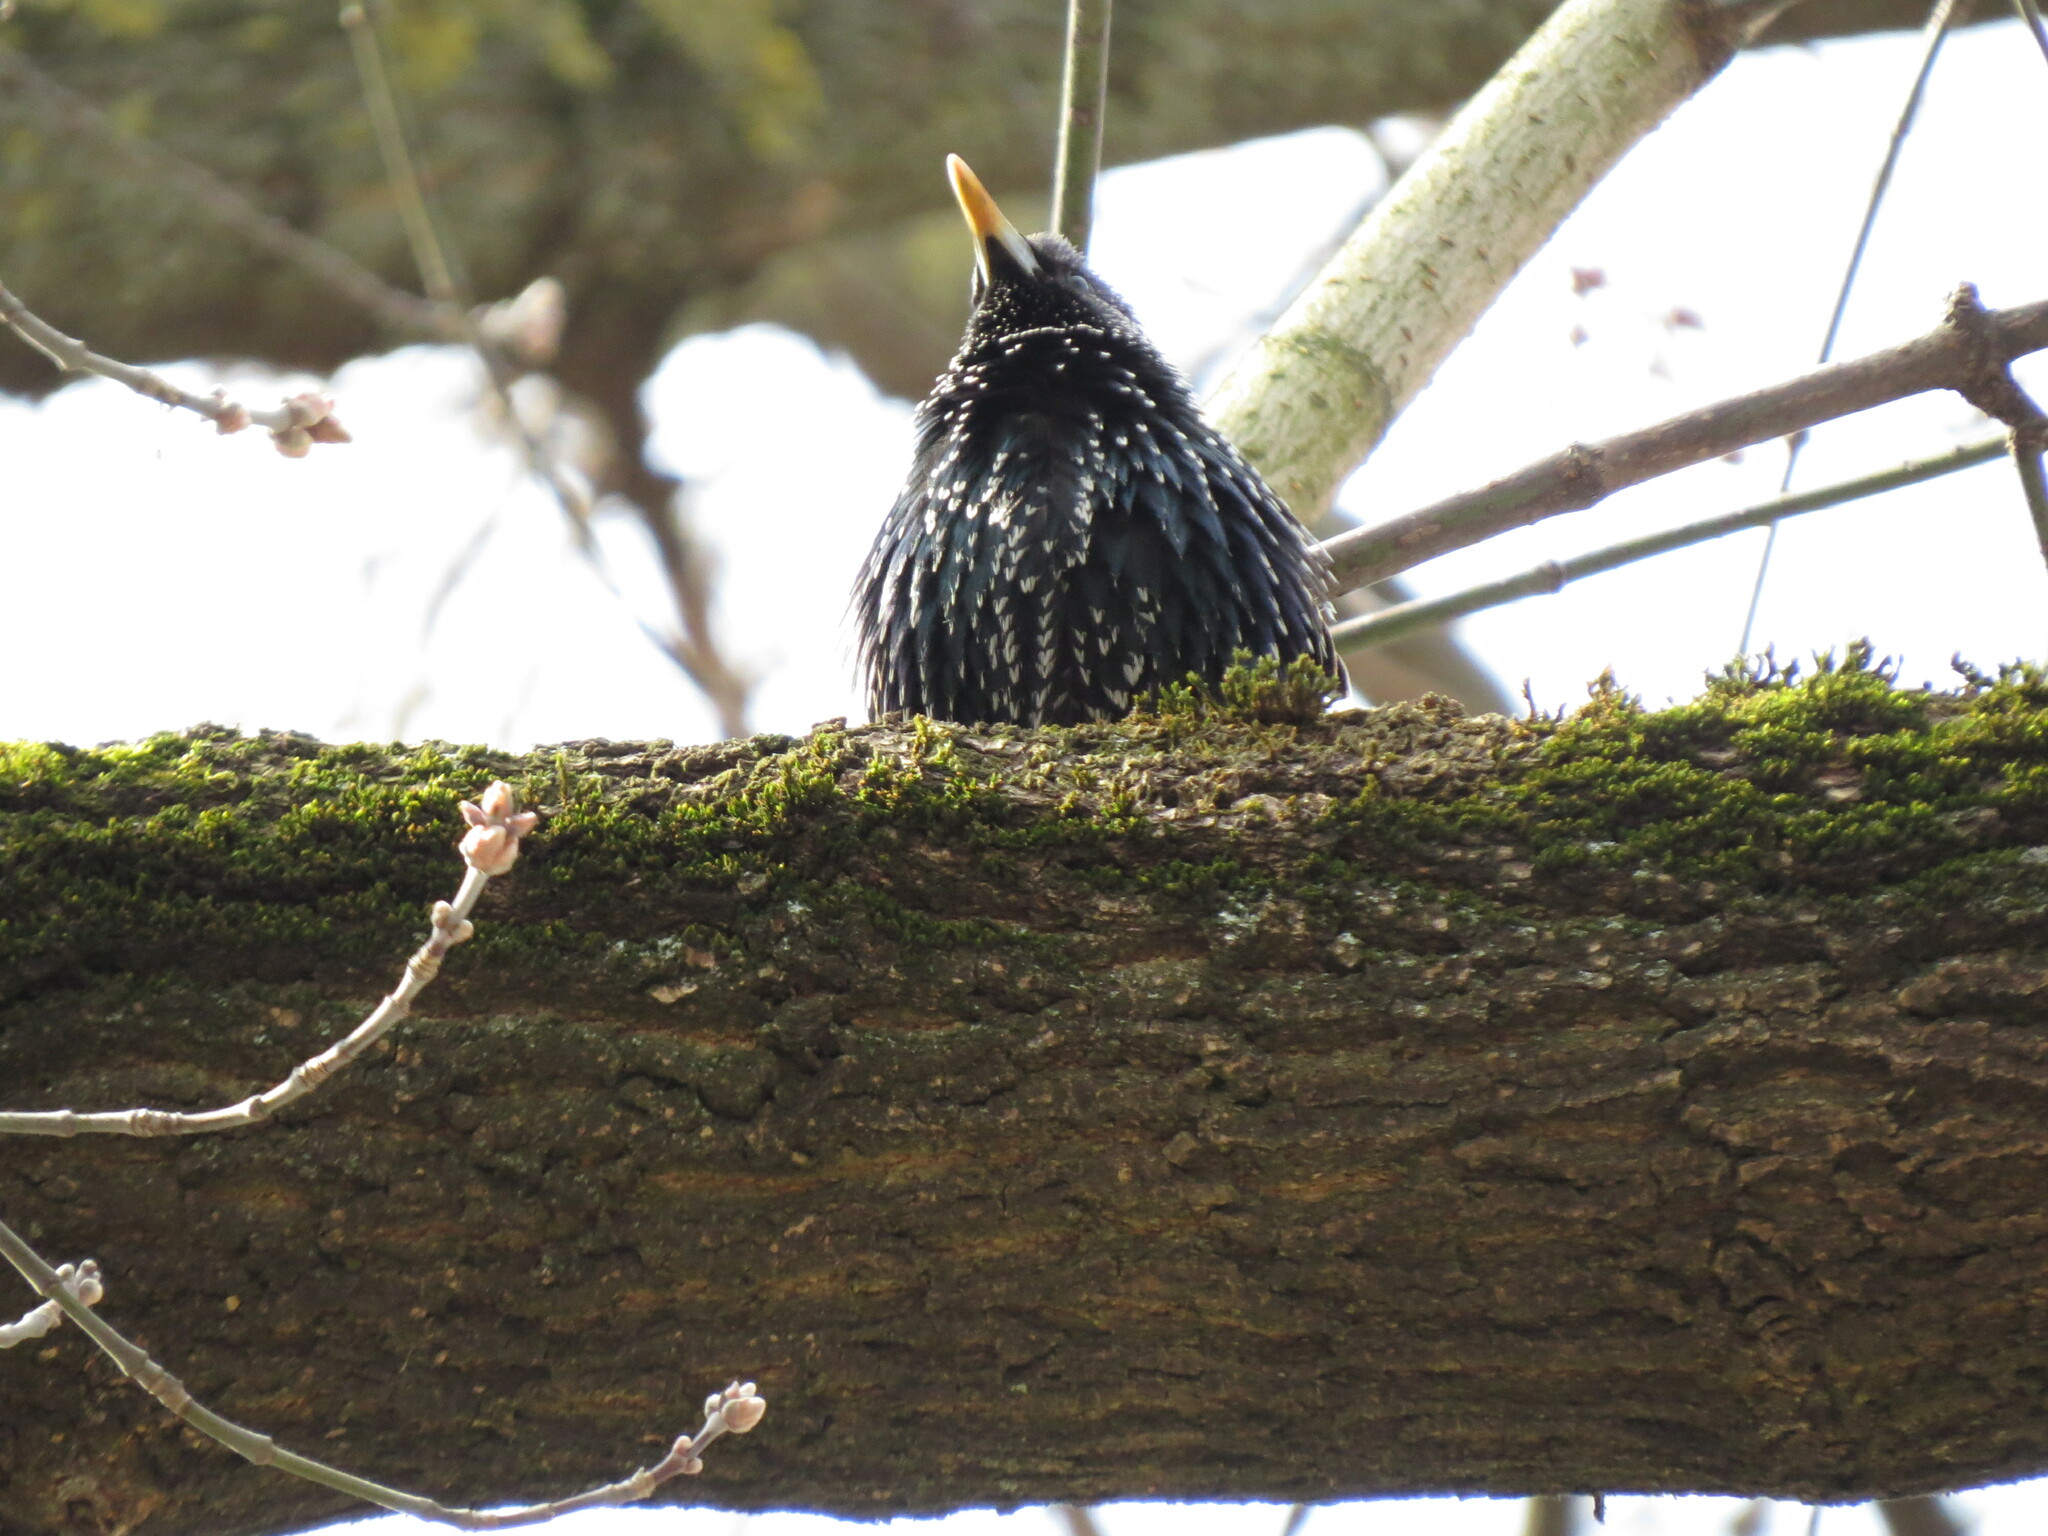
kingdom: Animalia
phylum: Chordata
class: Aves
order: Passeriformes
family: Sturnidae
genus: Sturnus
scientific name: Sturnus vulgaris
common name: Common starling
